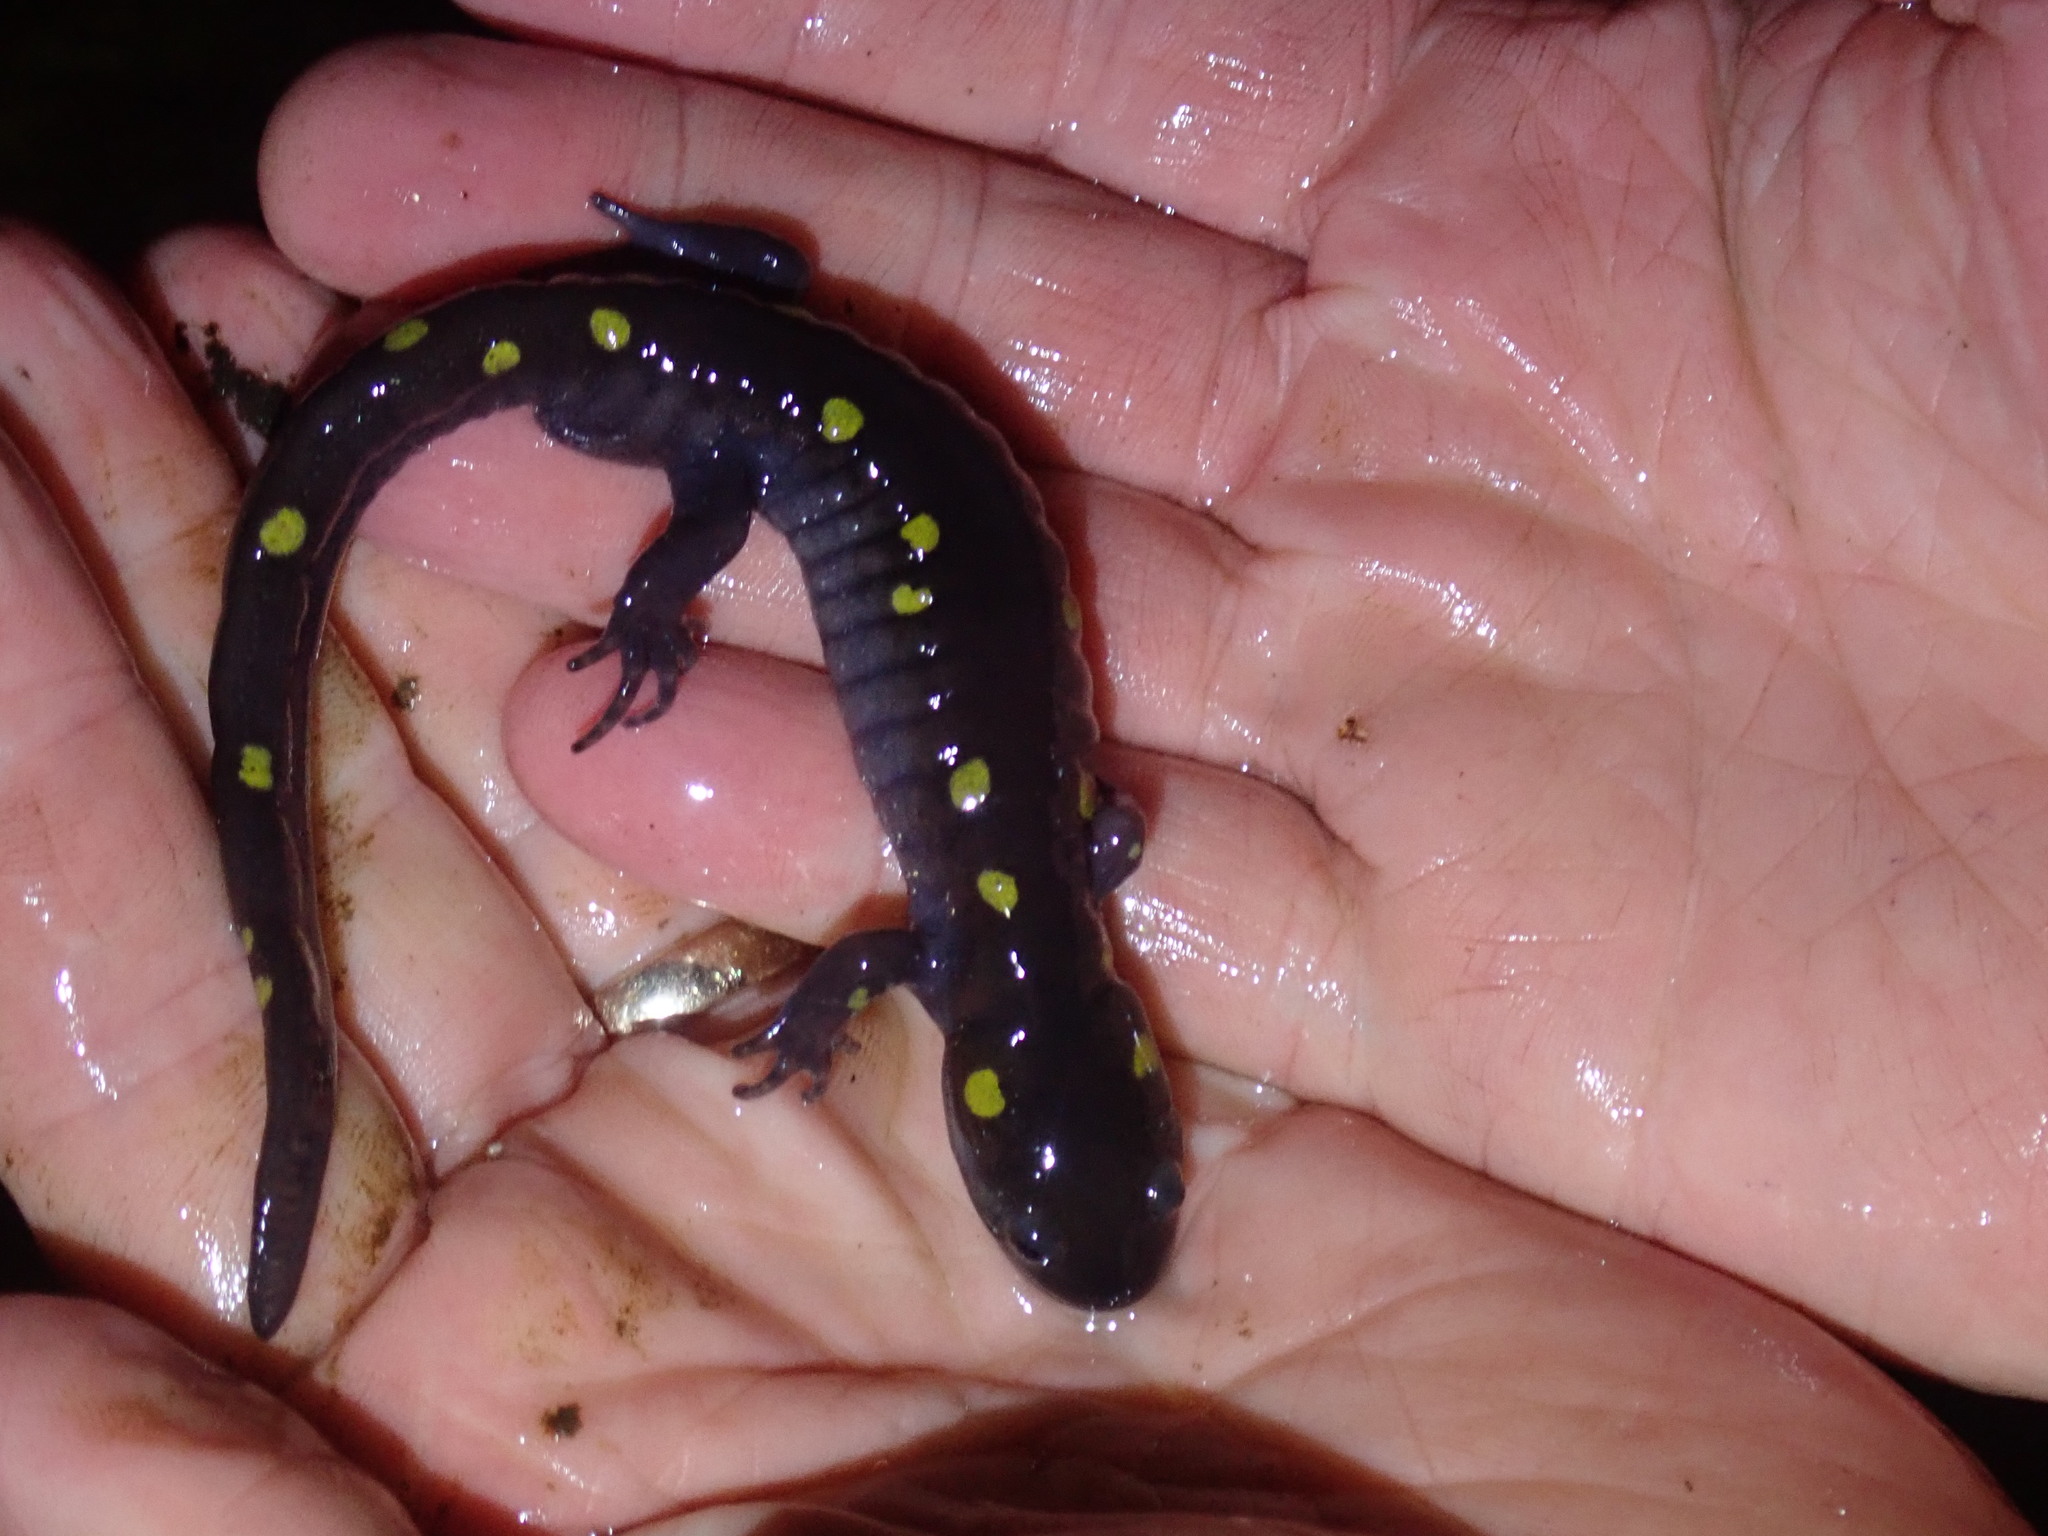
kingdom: Animalia
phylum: Chordata
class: Amphibia
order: Caudata
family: Ambystomatidae
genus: Ambystoma
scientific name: Ambystoma maculatum
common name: Spotted salamander
